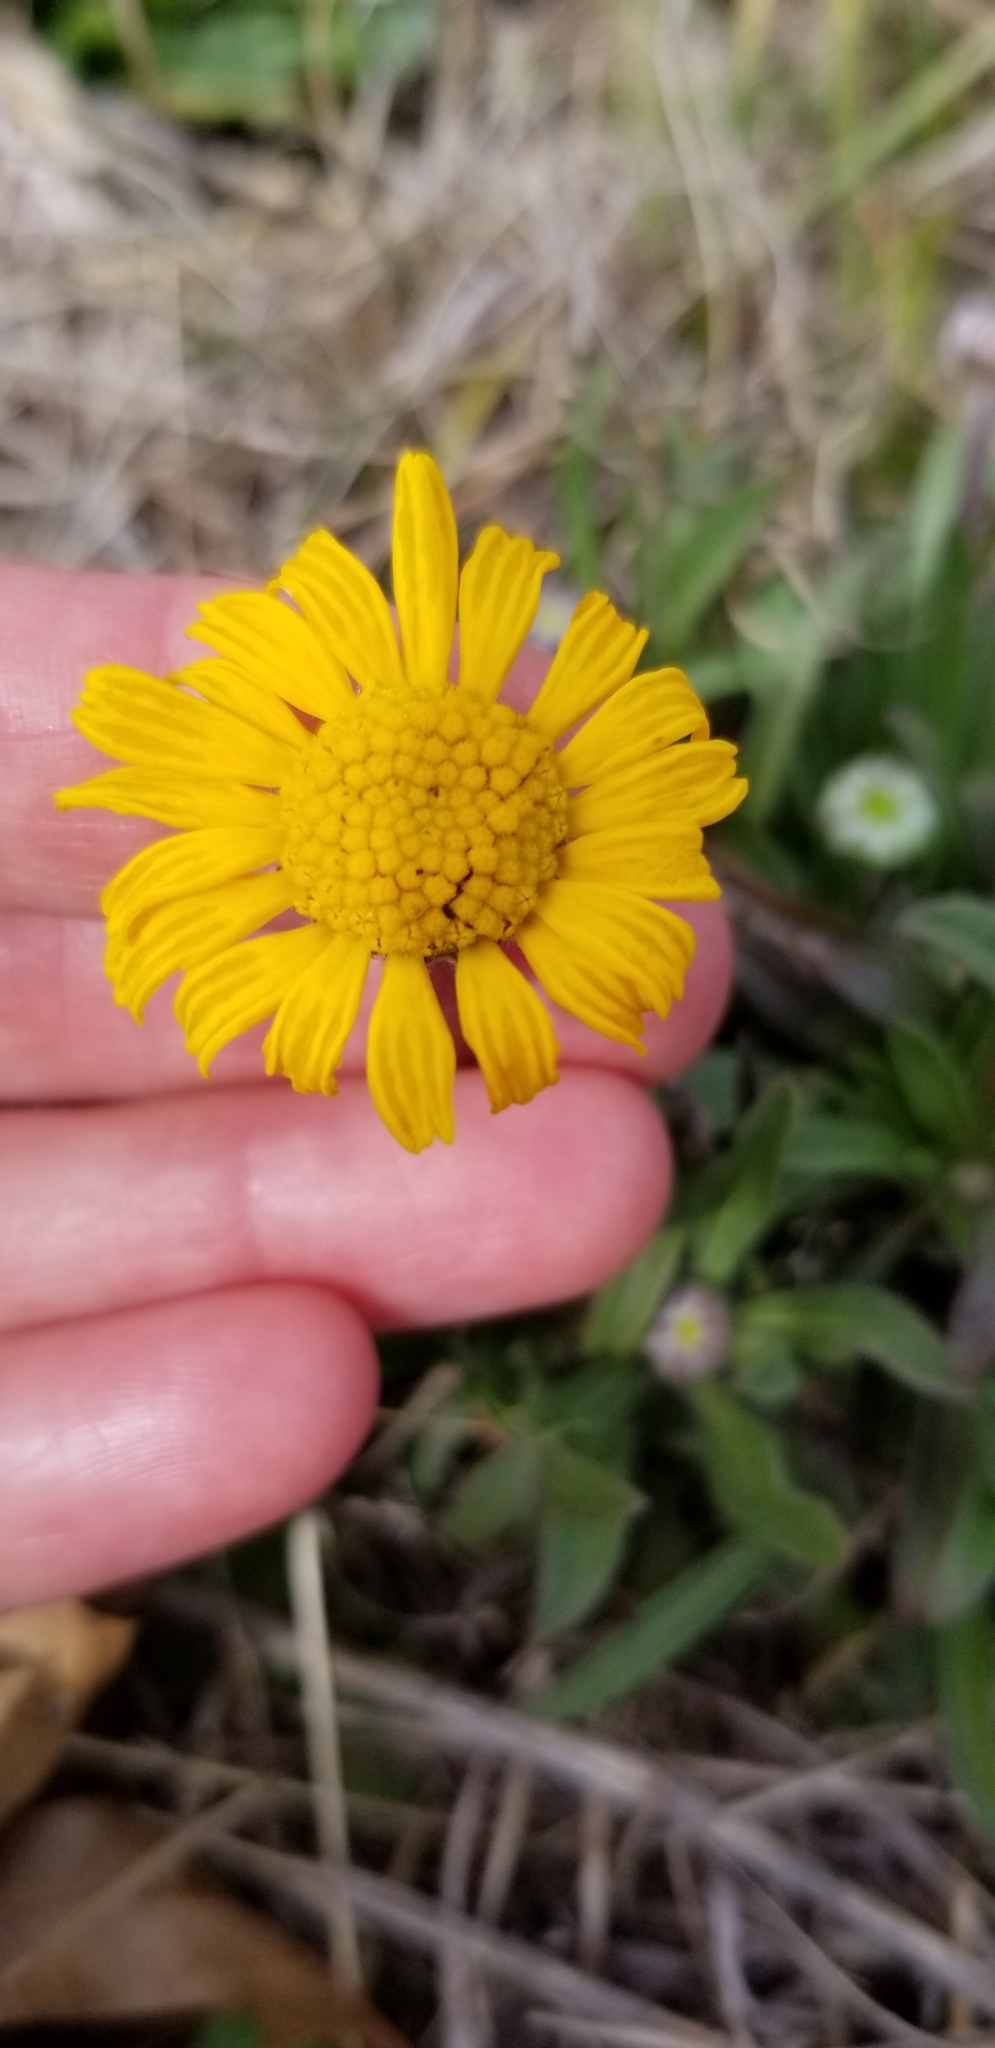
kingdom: Plantae
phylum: Tracheophyta
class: Magnoliopsida
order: Asterales
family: Asteraceae
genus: Tetraneuris
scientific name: Tetraneuris scaposa
